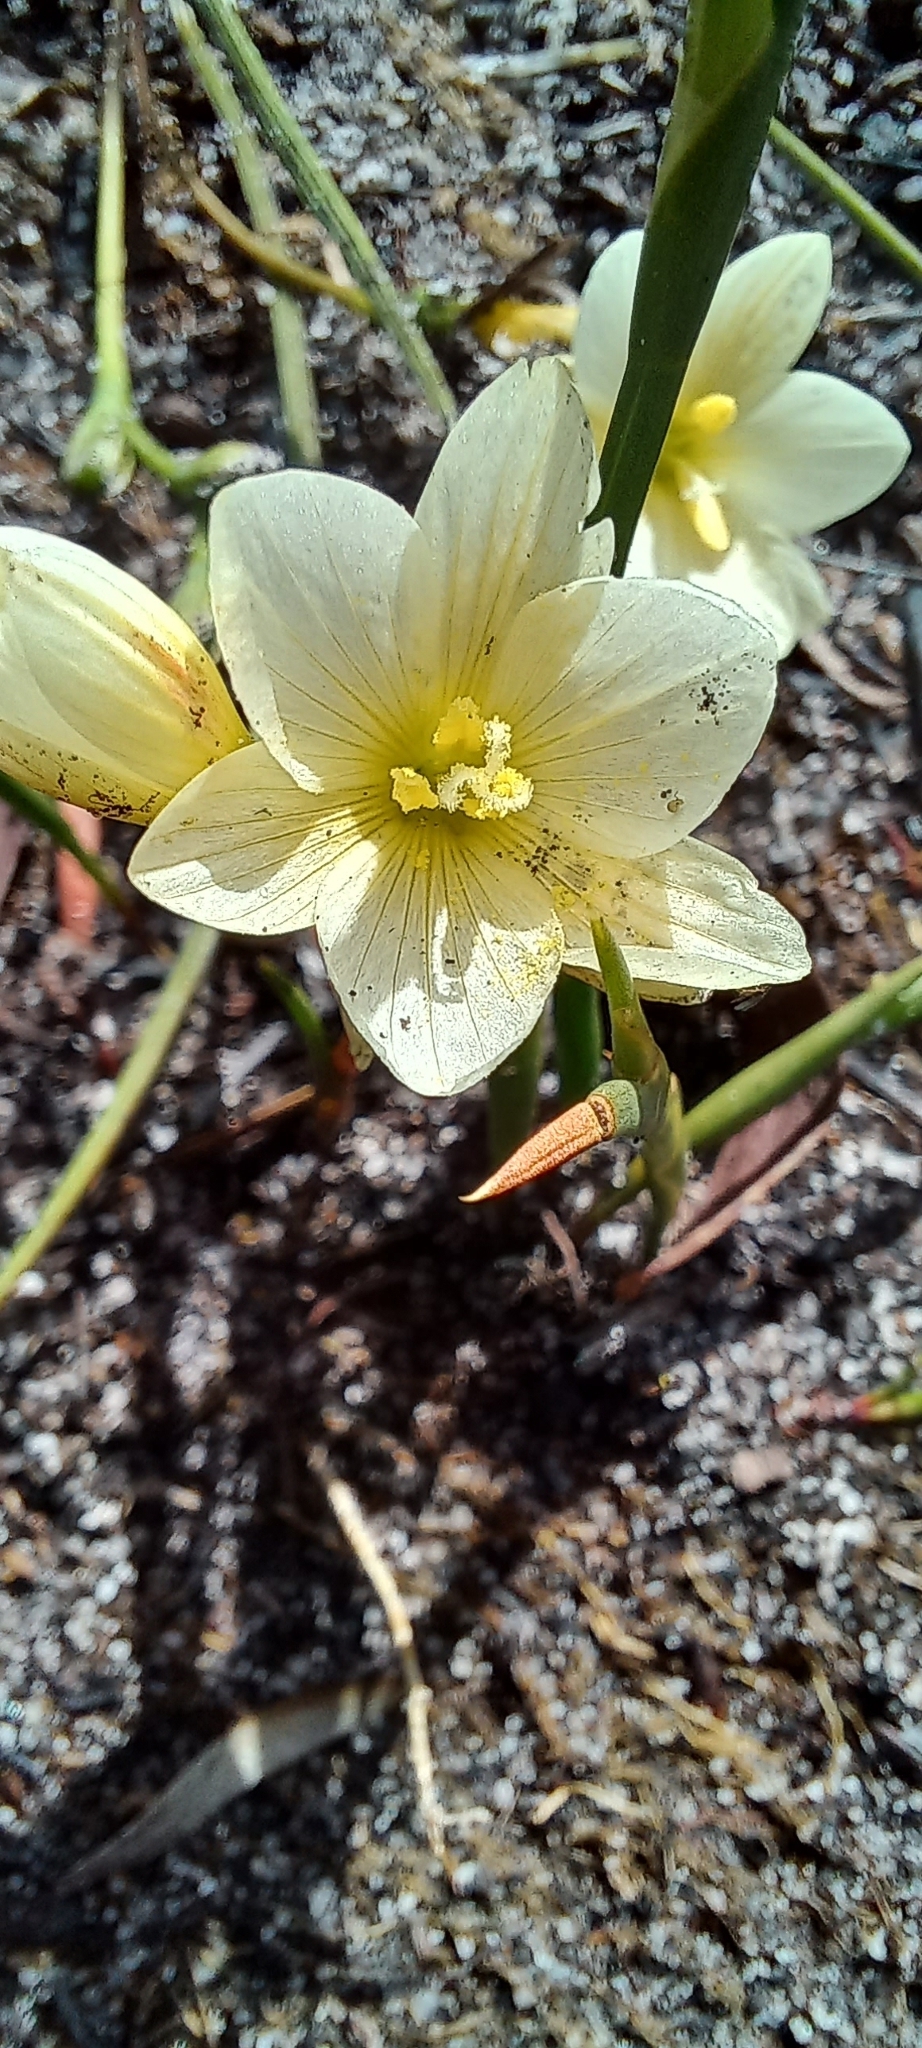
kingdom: Plantae
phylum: Tracheophyta
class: Liliopsida
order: Asparagales
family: Iridaceae
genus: Geissorhiza
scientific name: Geissorhiza imbricata
